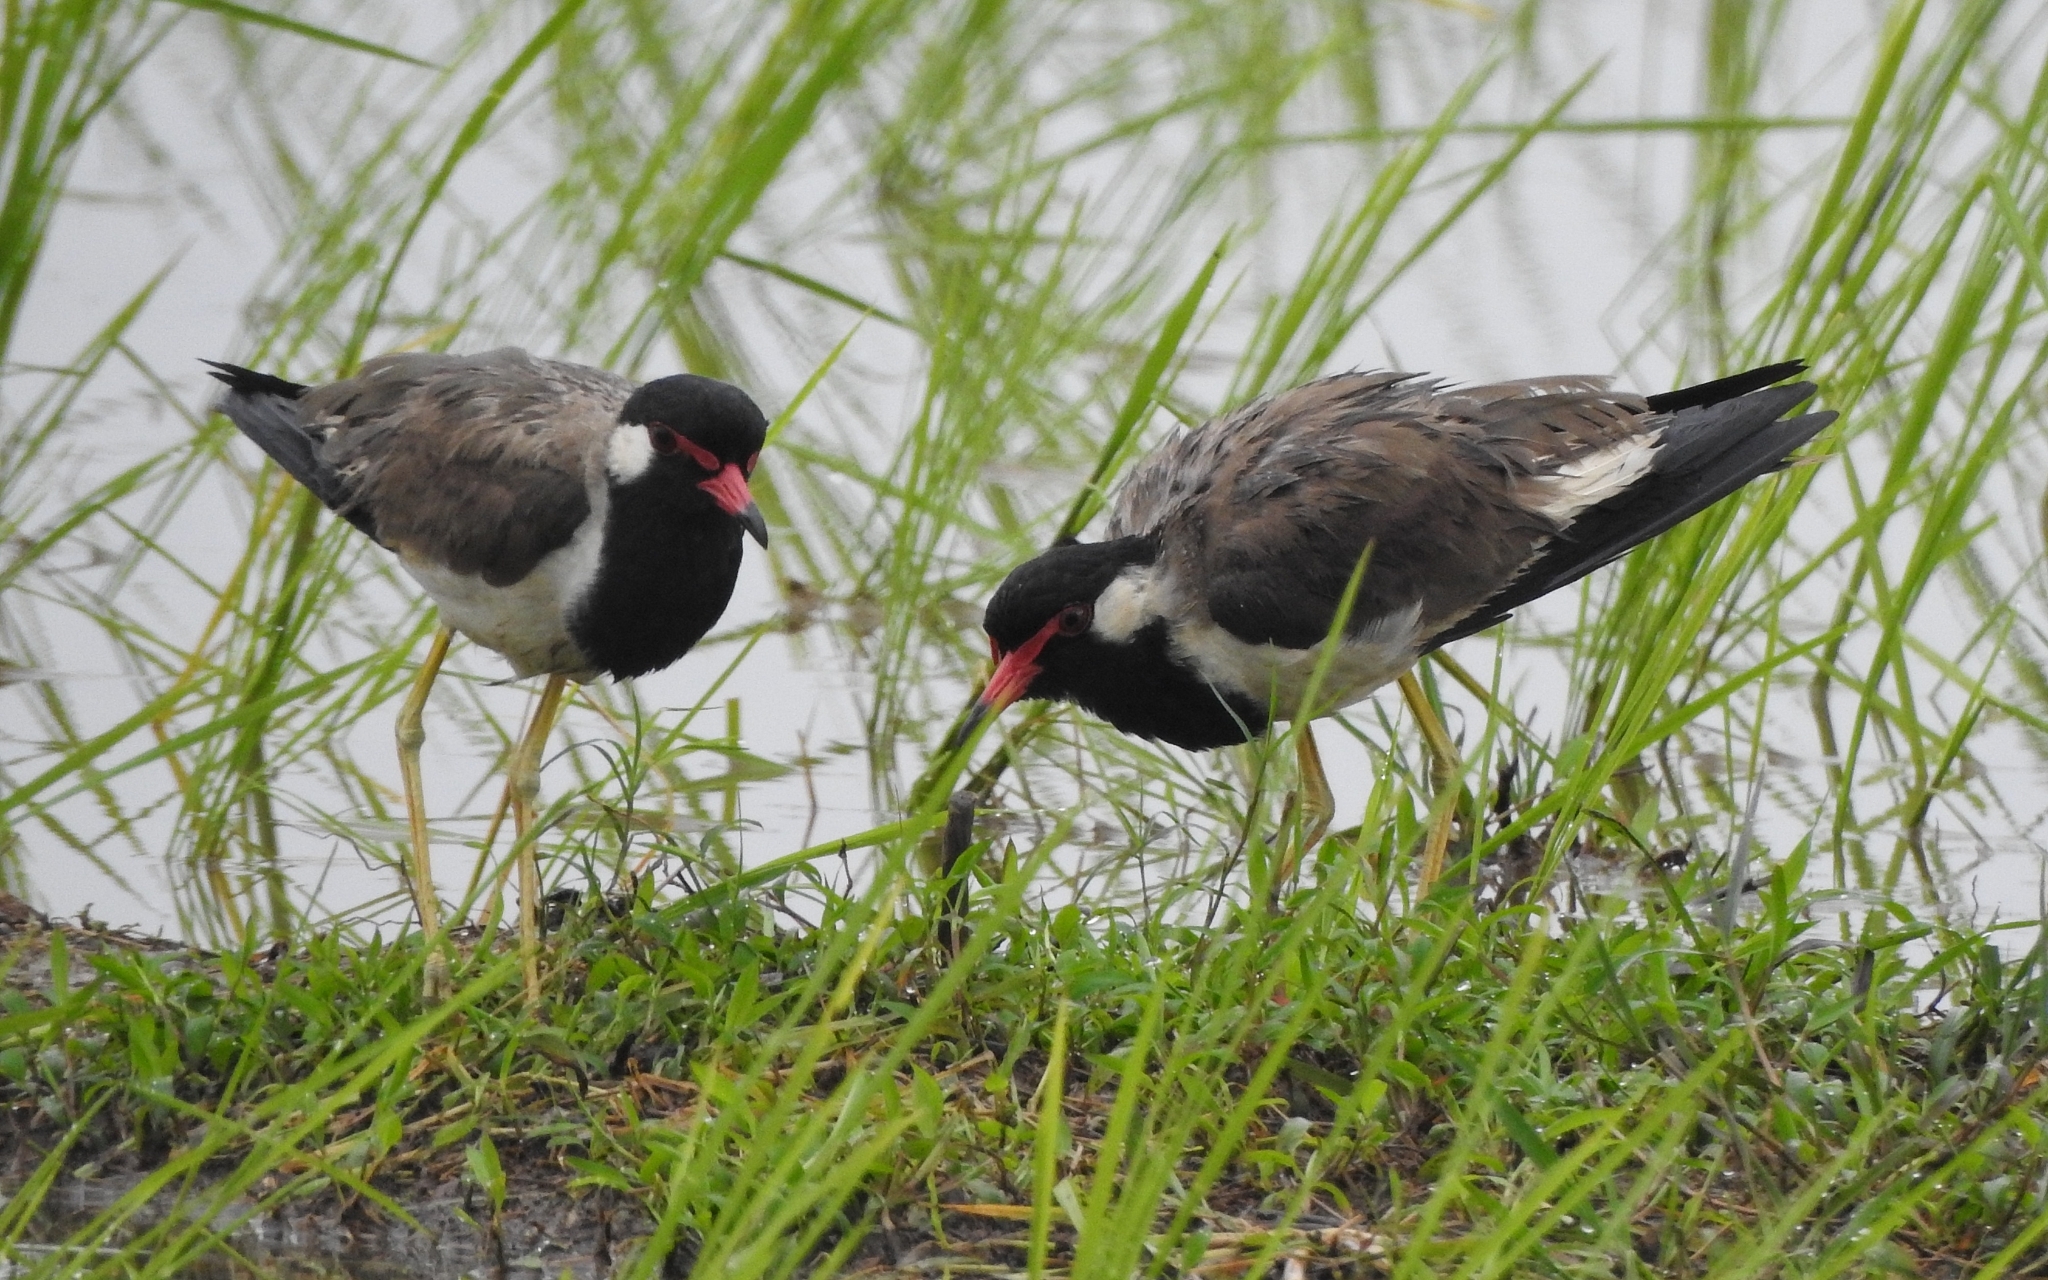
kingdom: Animalia
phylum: Chordata
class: Aves
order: Charadriiformes
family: Charadriidae
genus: Vanellus
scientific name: Vanellus indicus
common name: Red-wattled lapwing
